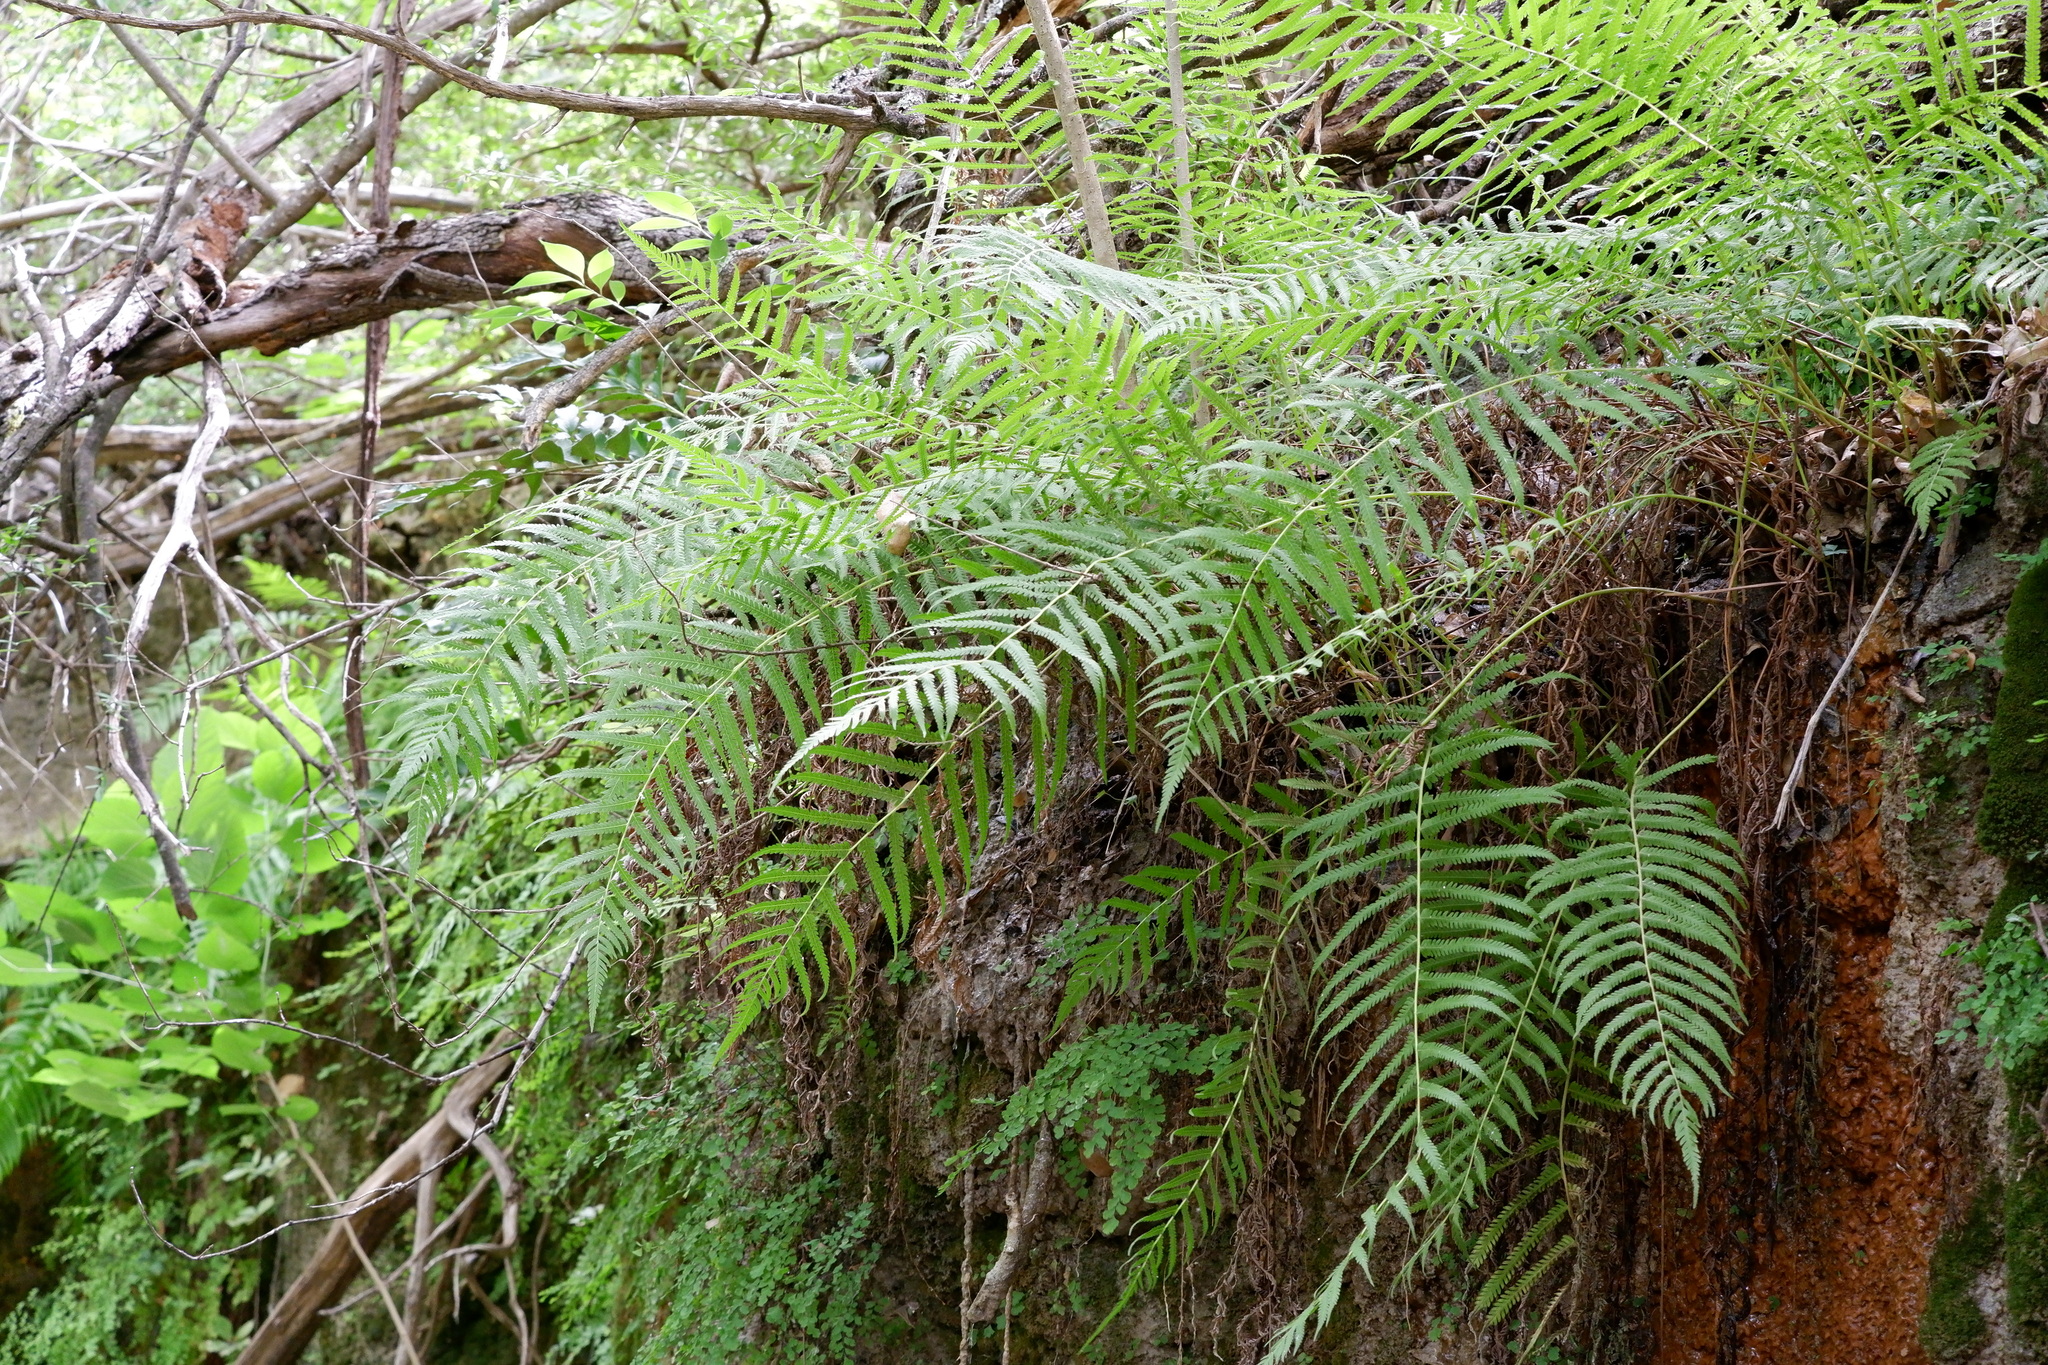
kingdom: Plantae
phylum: Tracheophyta
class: Polypodiopsida
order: Polypodiales
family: Thelypteridaceae
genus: Pelazoneuron
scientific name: Pelazoneuron ovatum
